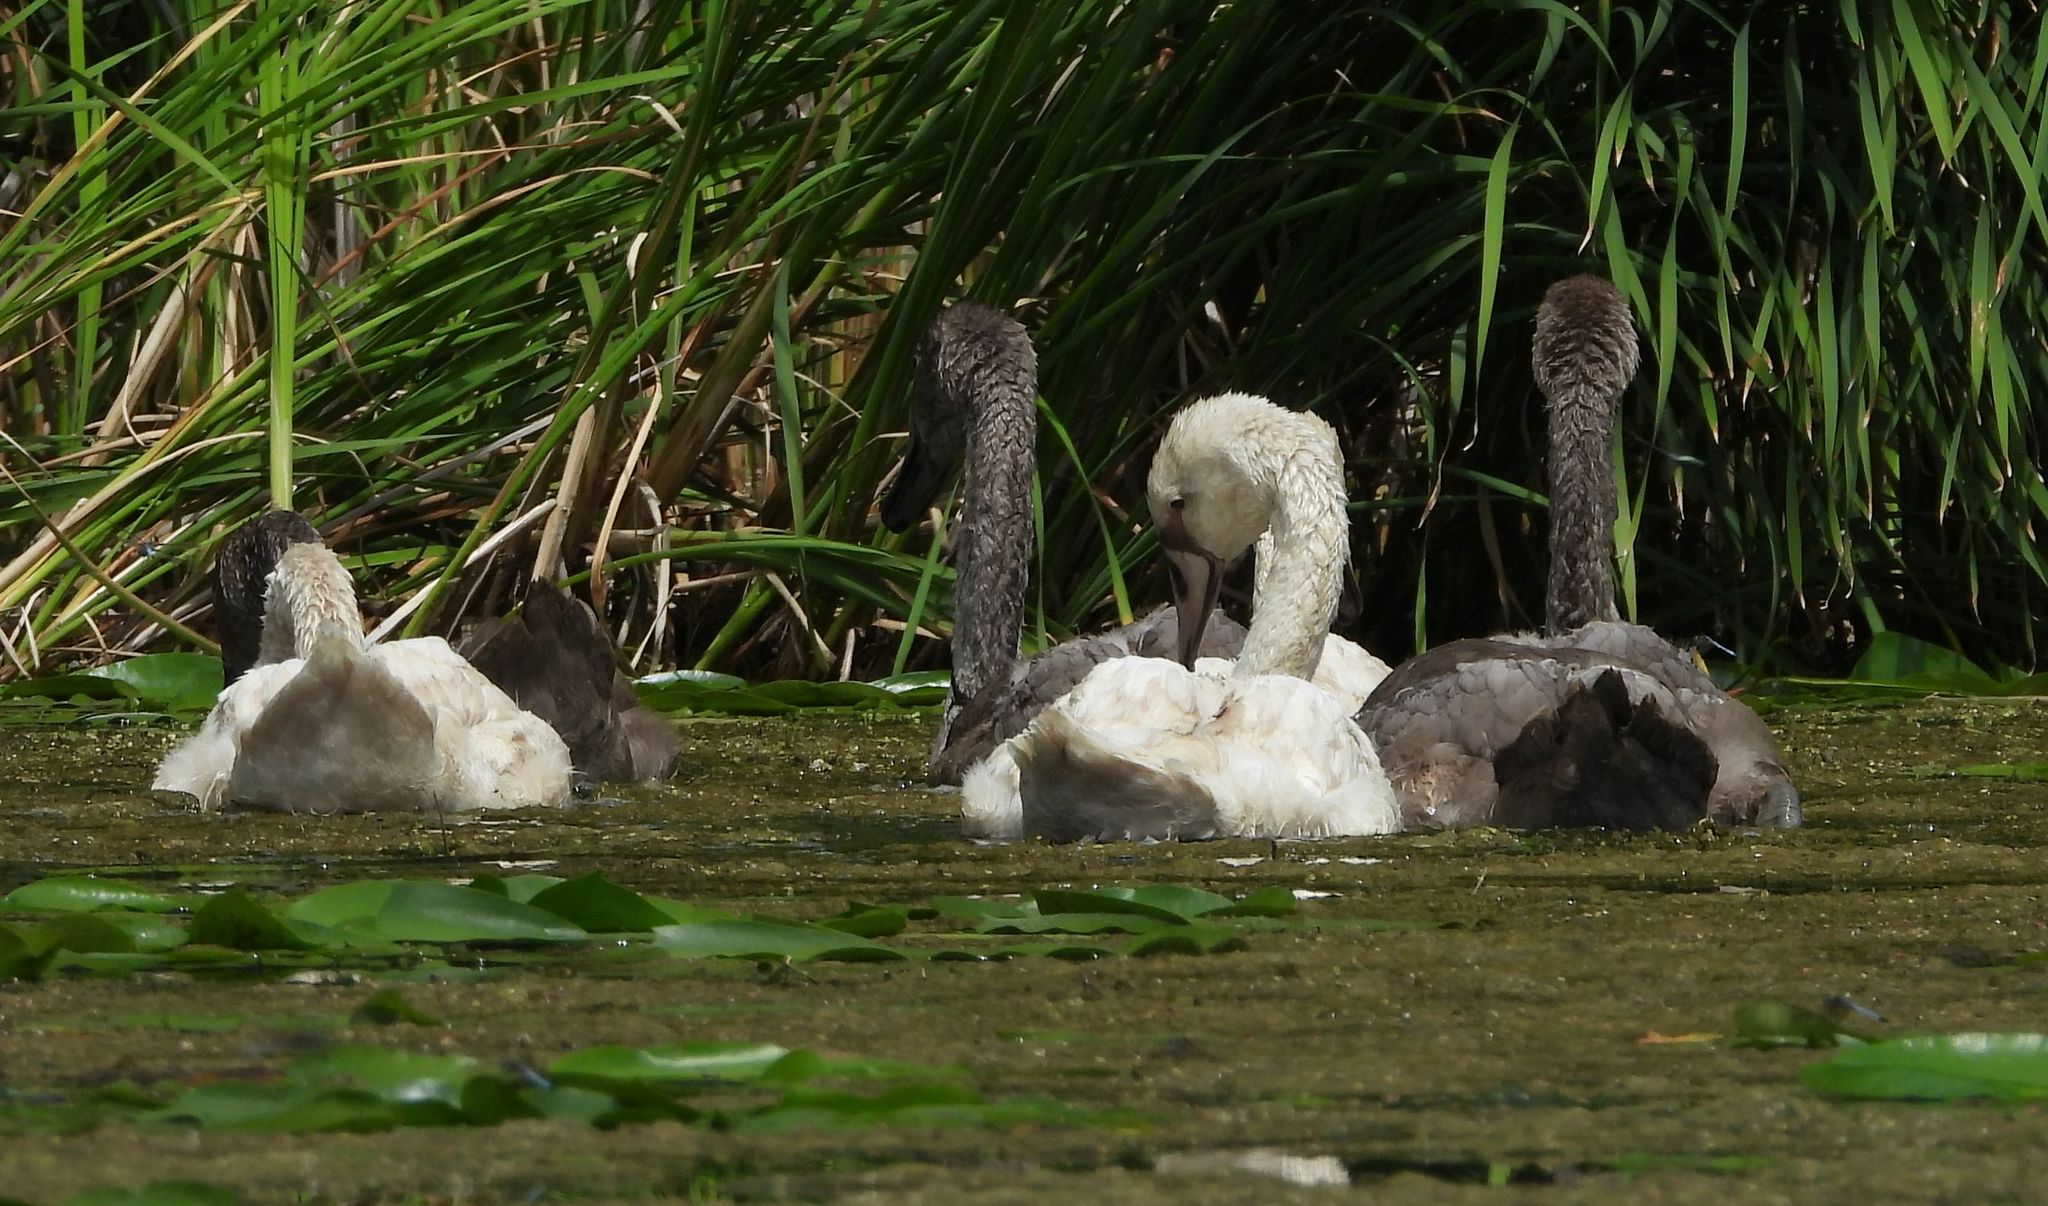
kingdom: Animalia
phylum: Chordata
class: Aves
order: Anseriformes
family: Anatidae
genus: Cygnus
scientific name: Cygnus olor
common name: Mute swan
